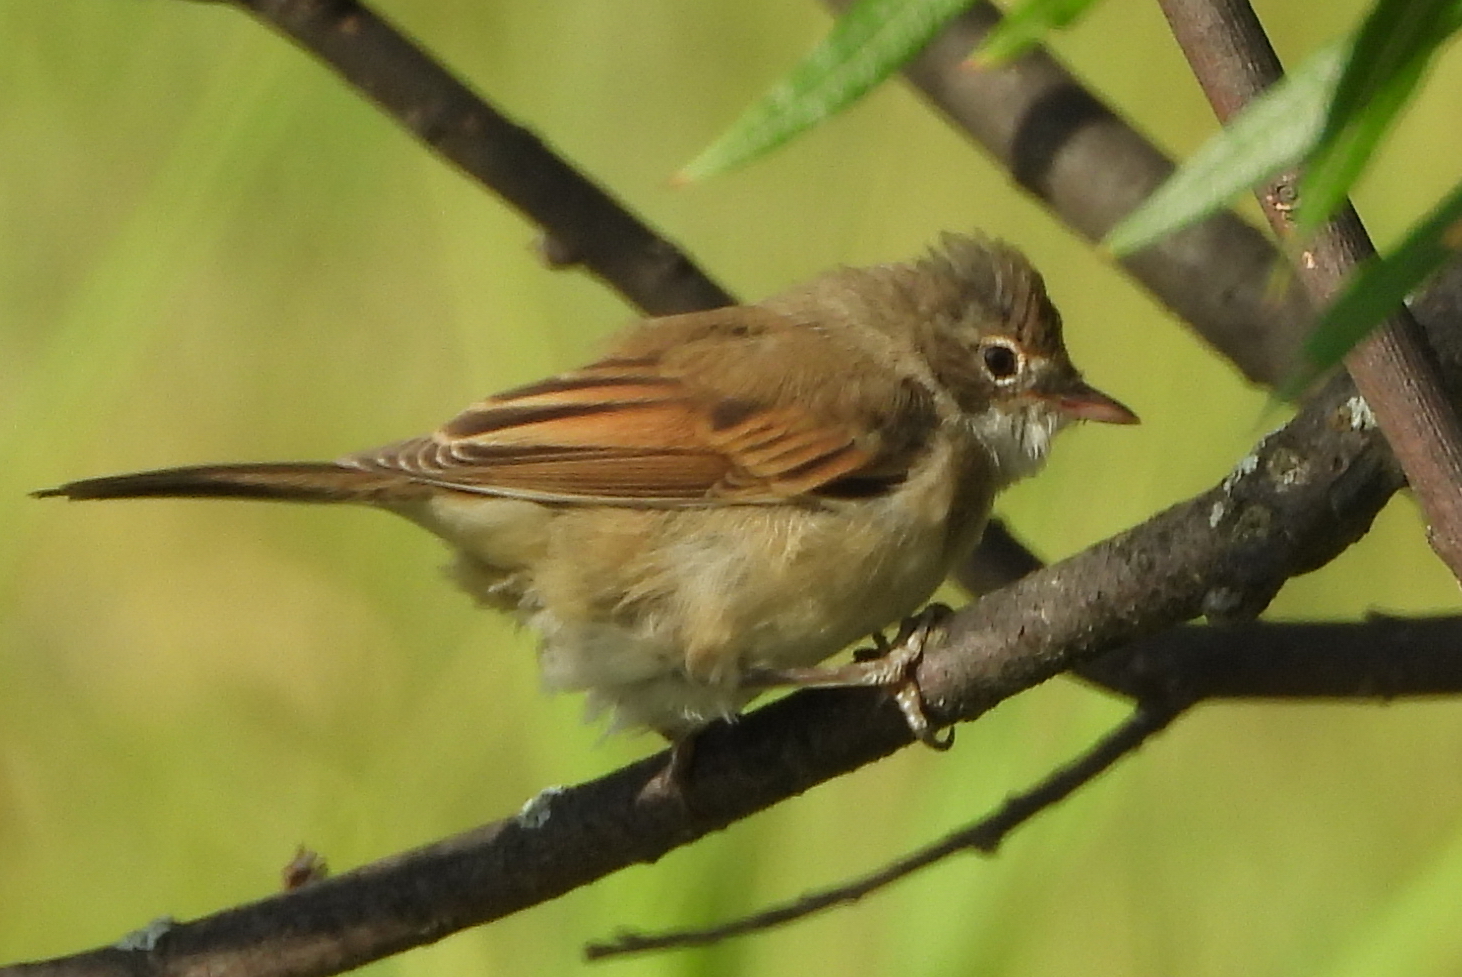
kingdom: Animalia
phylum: Chordata
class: Aves
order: Passeriformes
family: Sylviidae
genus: Sylvia
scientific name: Sylvia communis
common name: Common whitethroat
